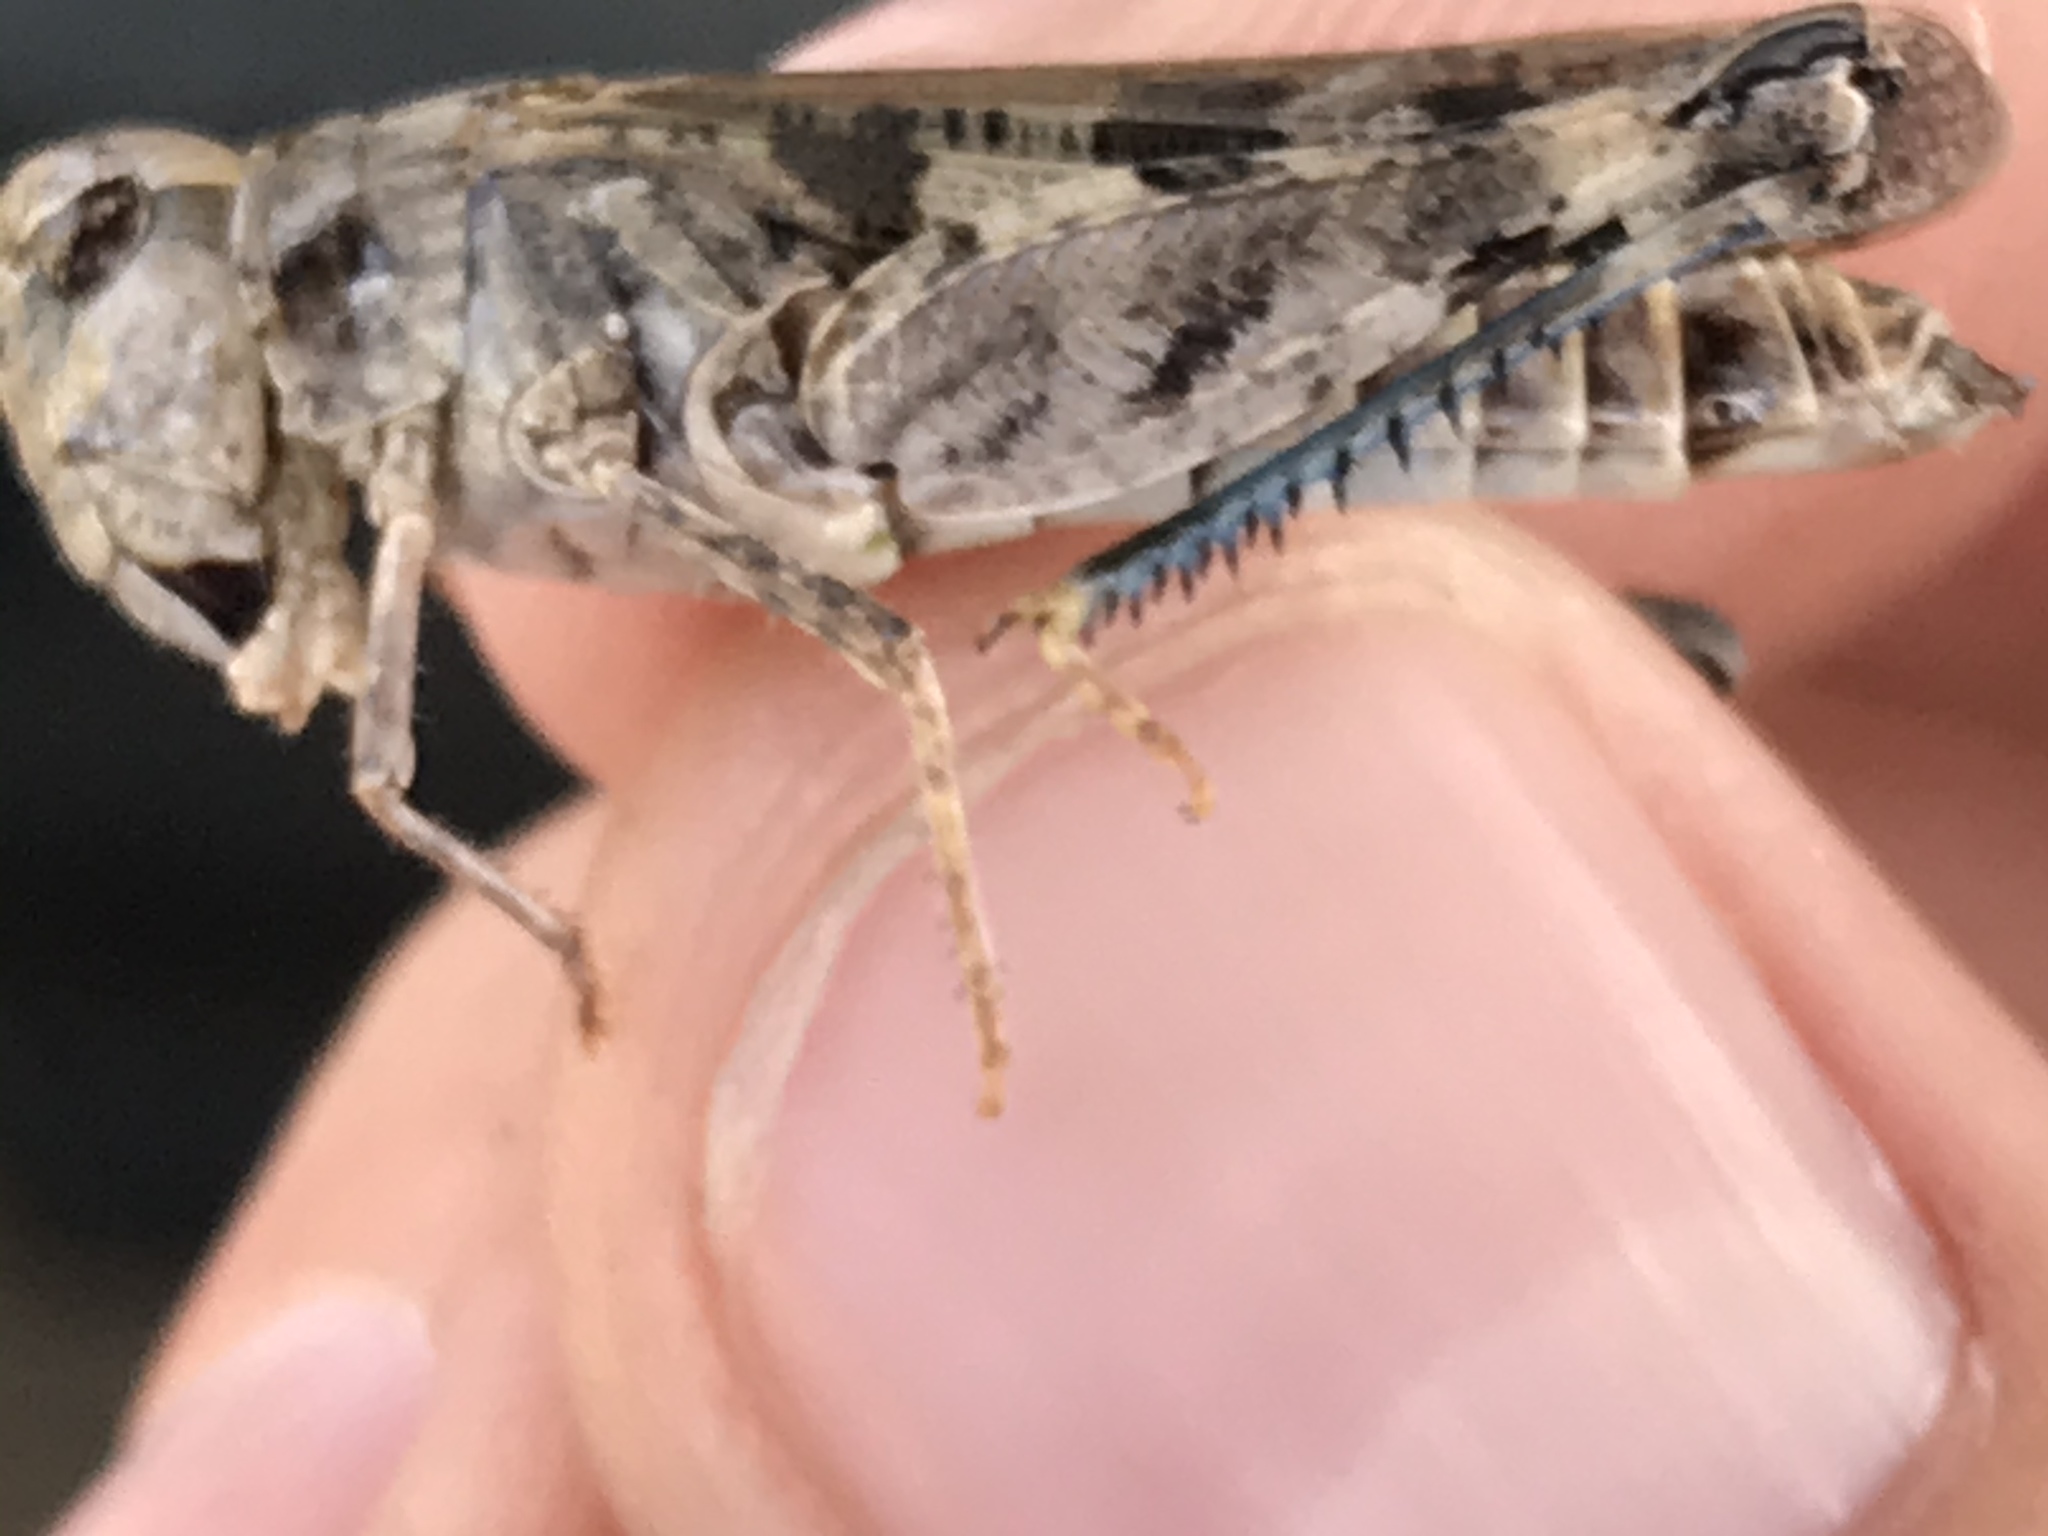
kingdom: Animalia
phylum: Arthropoda
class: Insecta
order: Orthoptera
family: Acrididae
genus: Encoptolophus
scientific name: Encoptolophus costalis
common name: Dusky grasshopper
